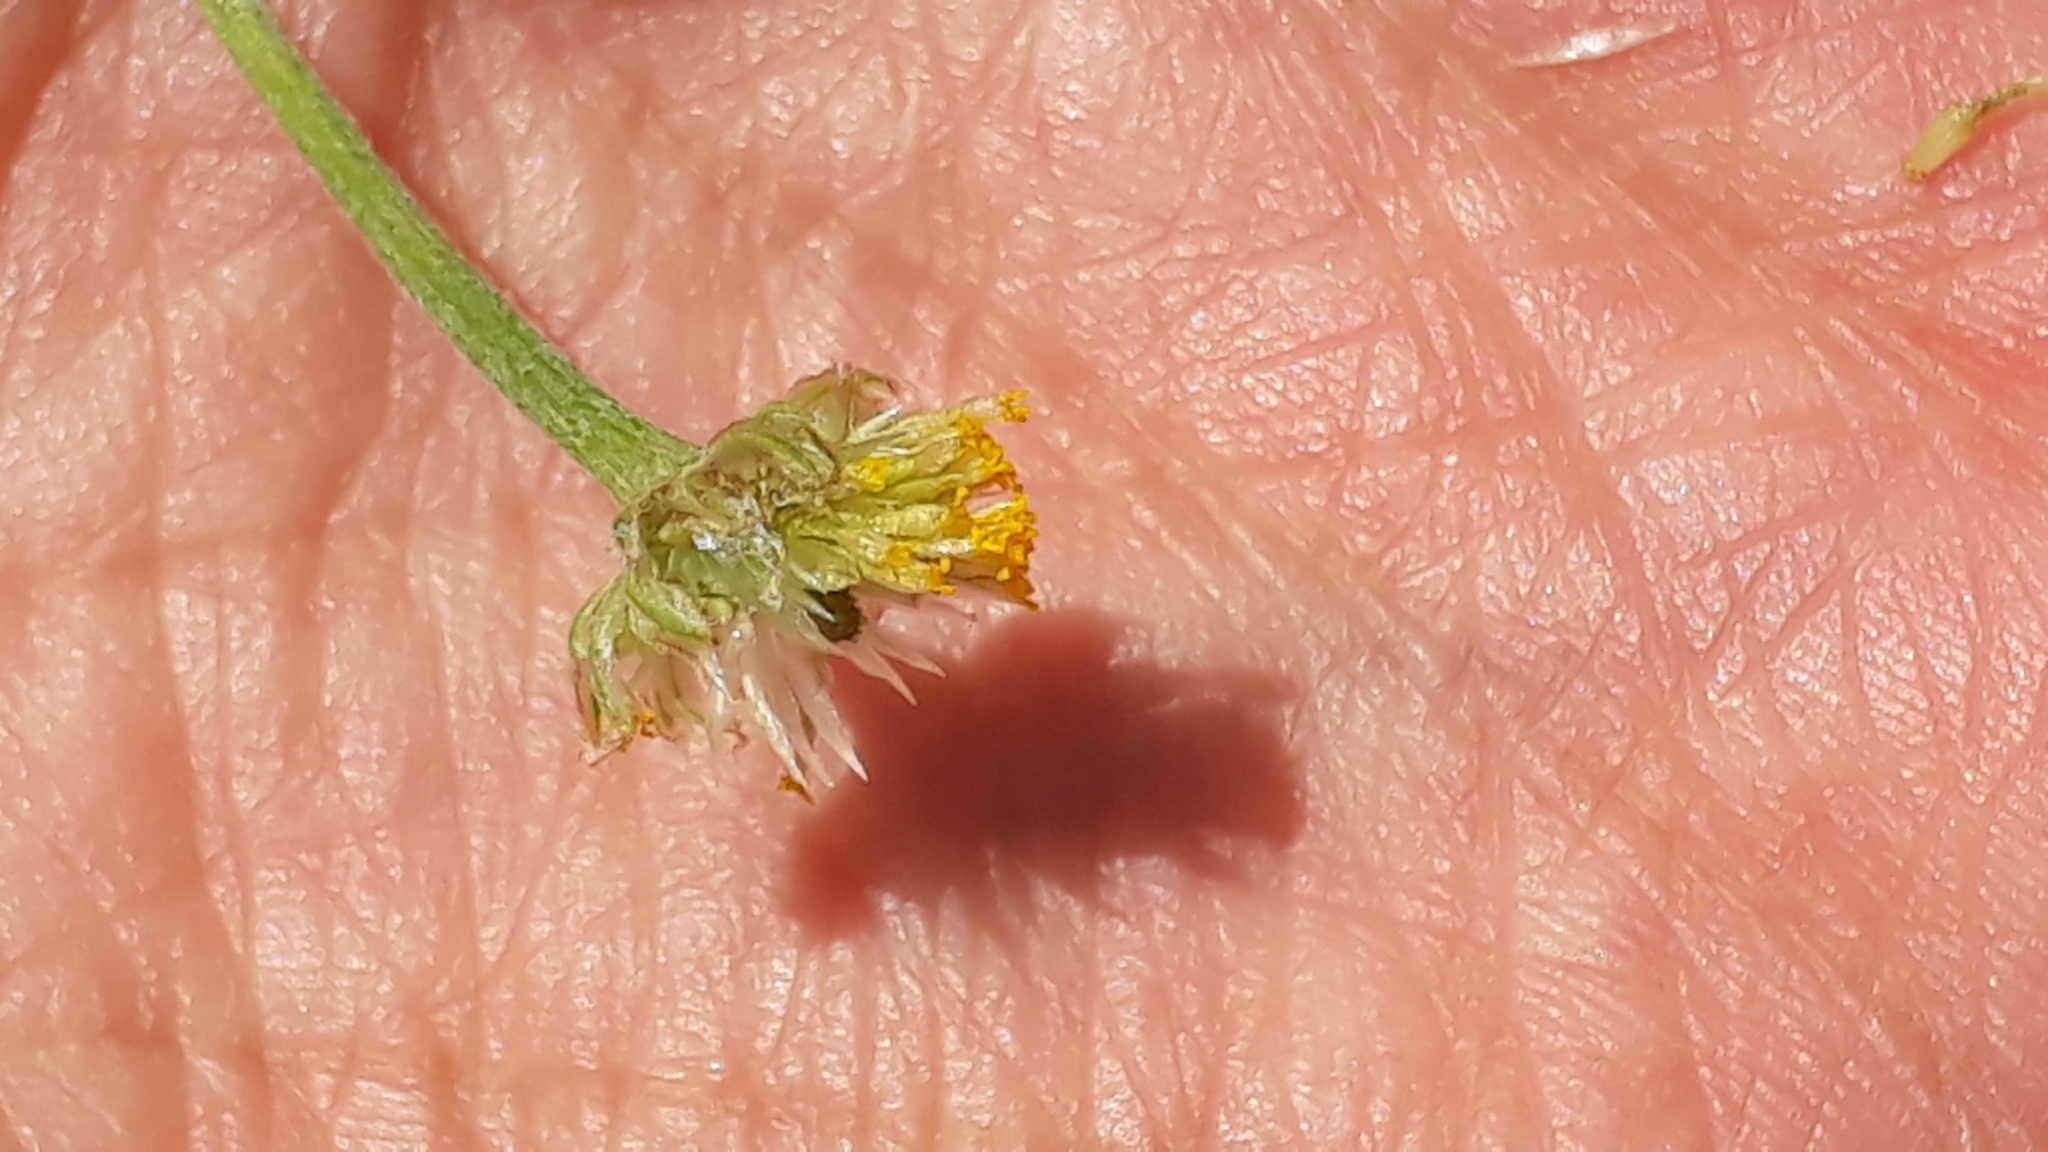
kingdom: Plantae
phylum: Tracheophyta
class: Magnoliopsida
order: Asterales
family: Asteraceae
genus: Anthemis
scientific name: Anthemis arvensis
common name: Corn chamomile
